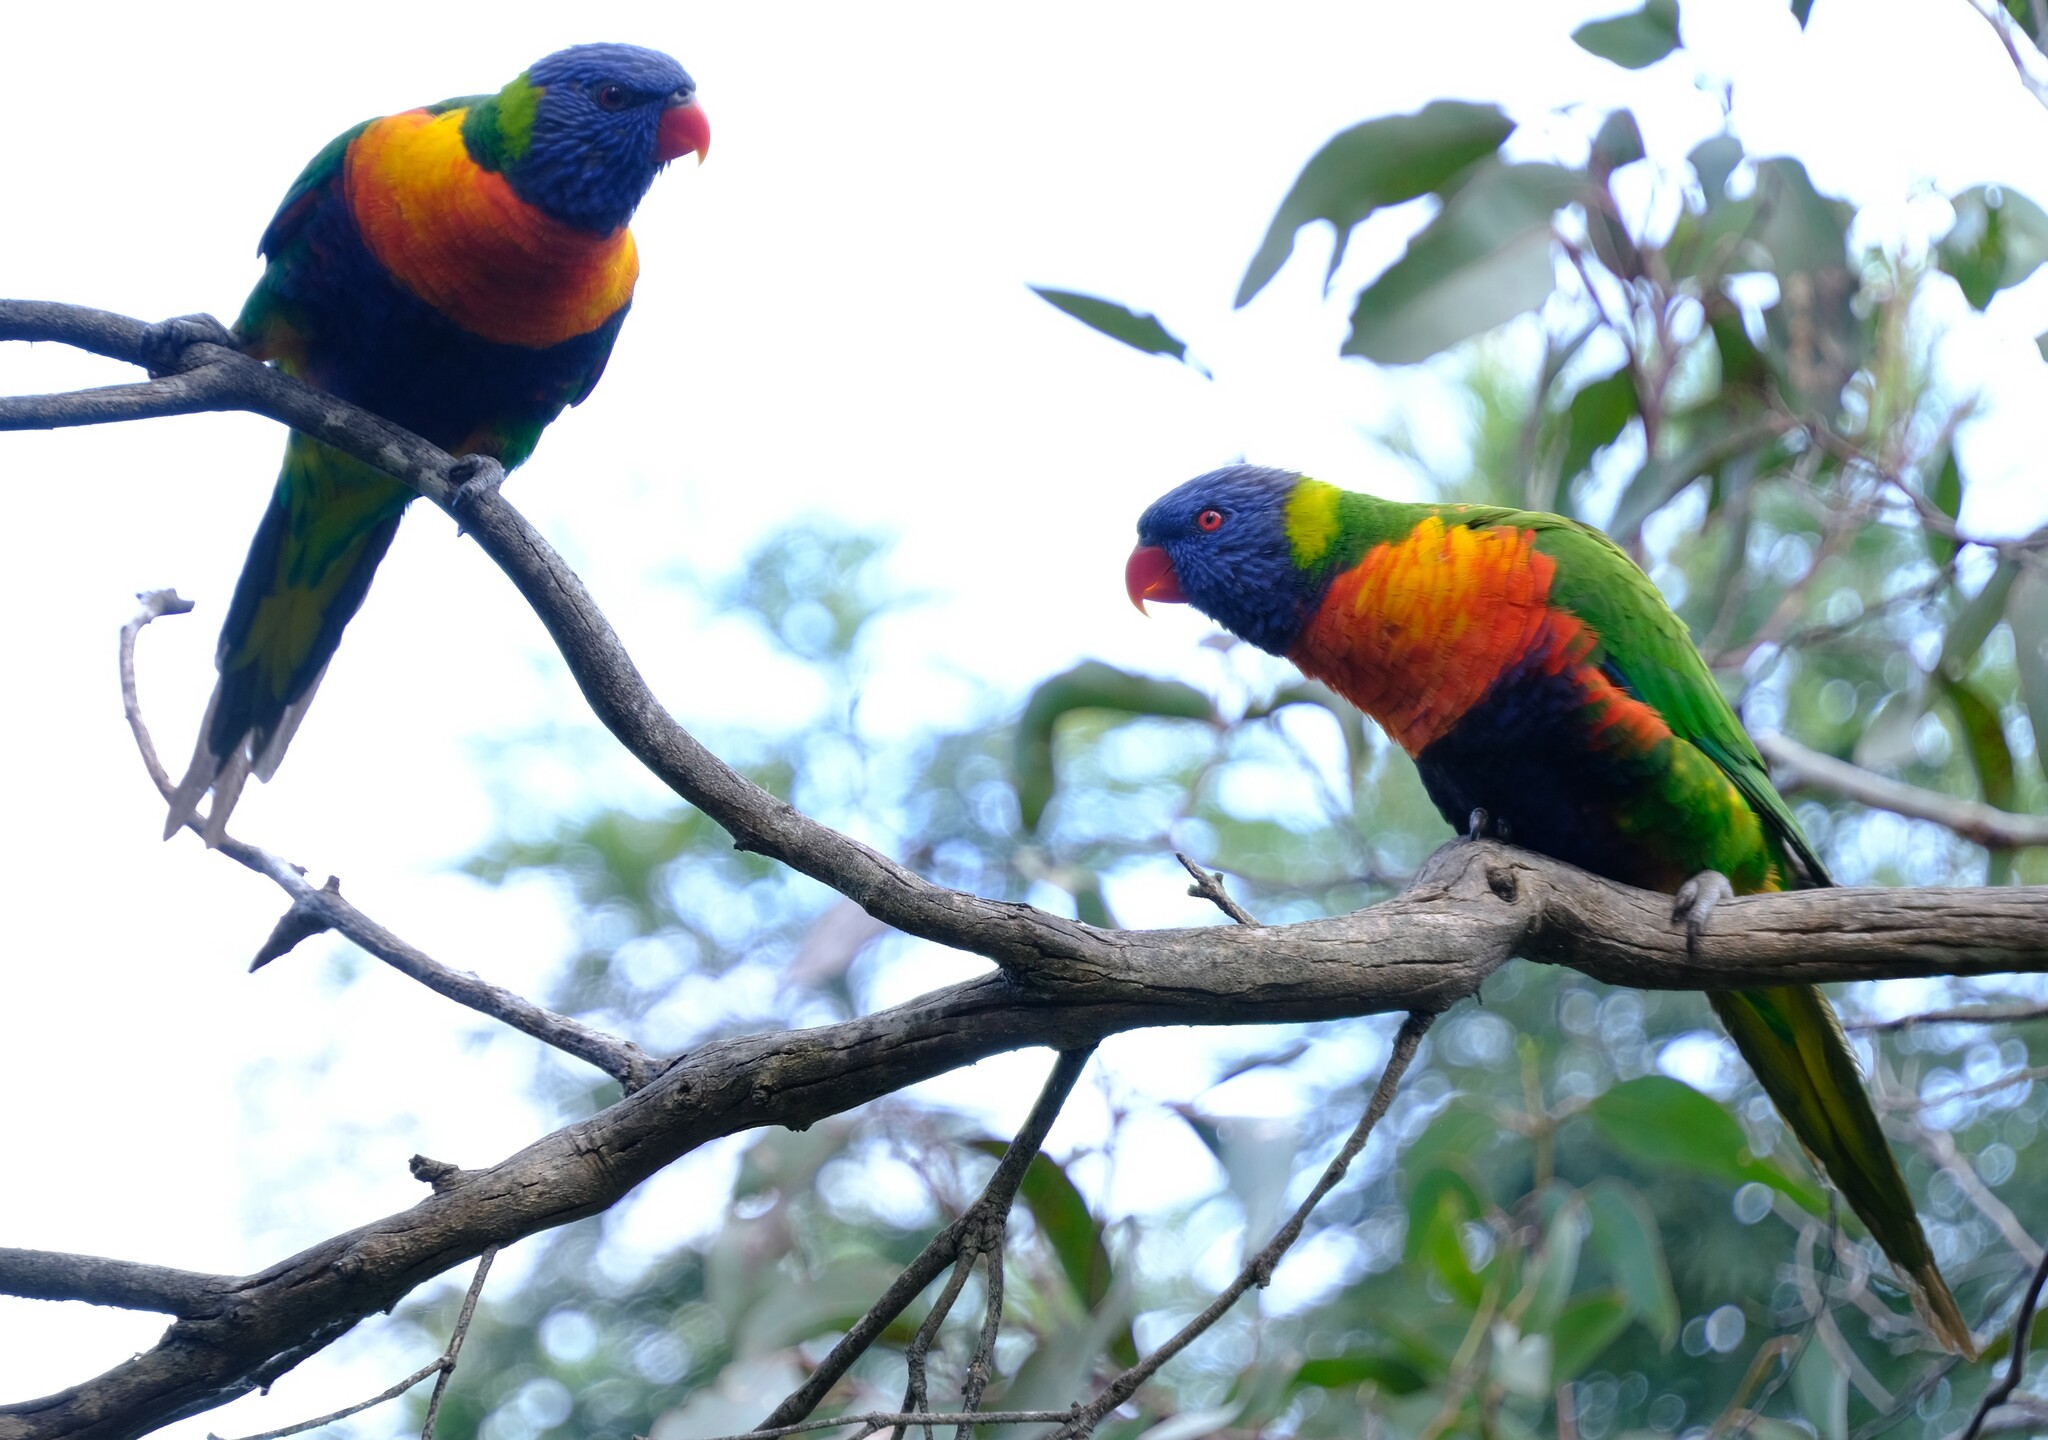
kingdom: Animalia
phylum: Chordata
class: Aves
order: Psittaciformes
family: Psittacidae
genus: Trichoglossus
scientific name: Trichoglossus haematodus
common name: Coconut lorikeet
